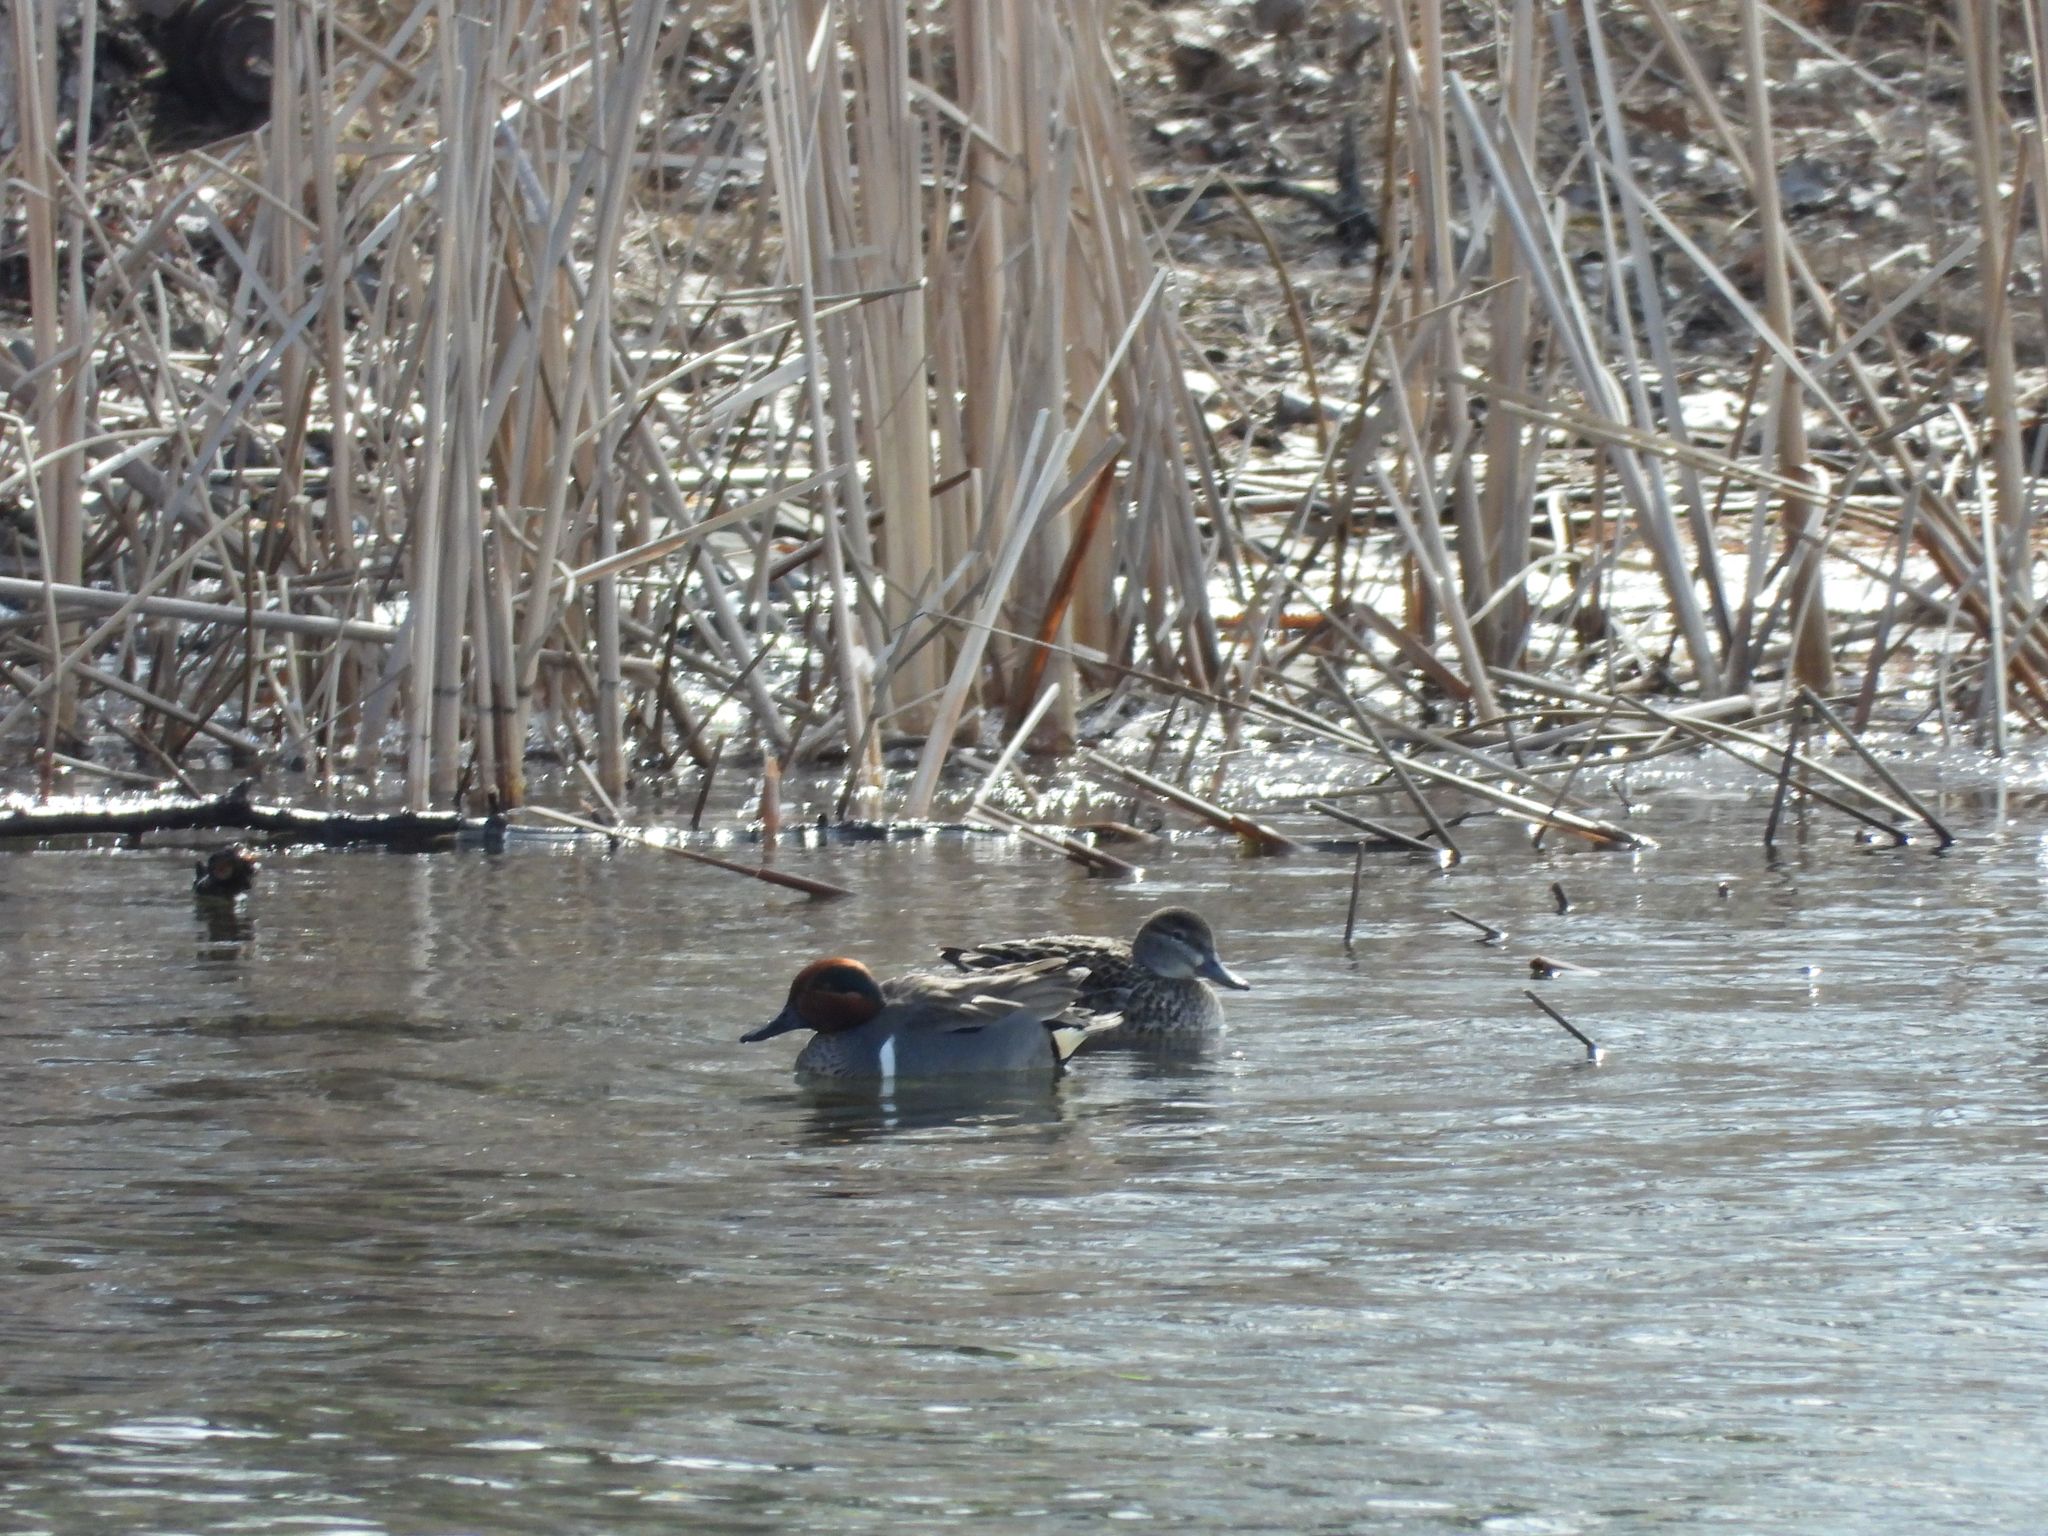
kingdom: Animalia
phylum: Chordata
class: Aves
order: Anseriformes
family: Anatidae
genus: Anas
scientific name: Anas crecca
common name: Eurasian teal
